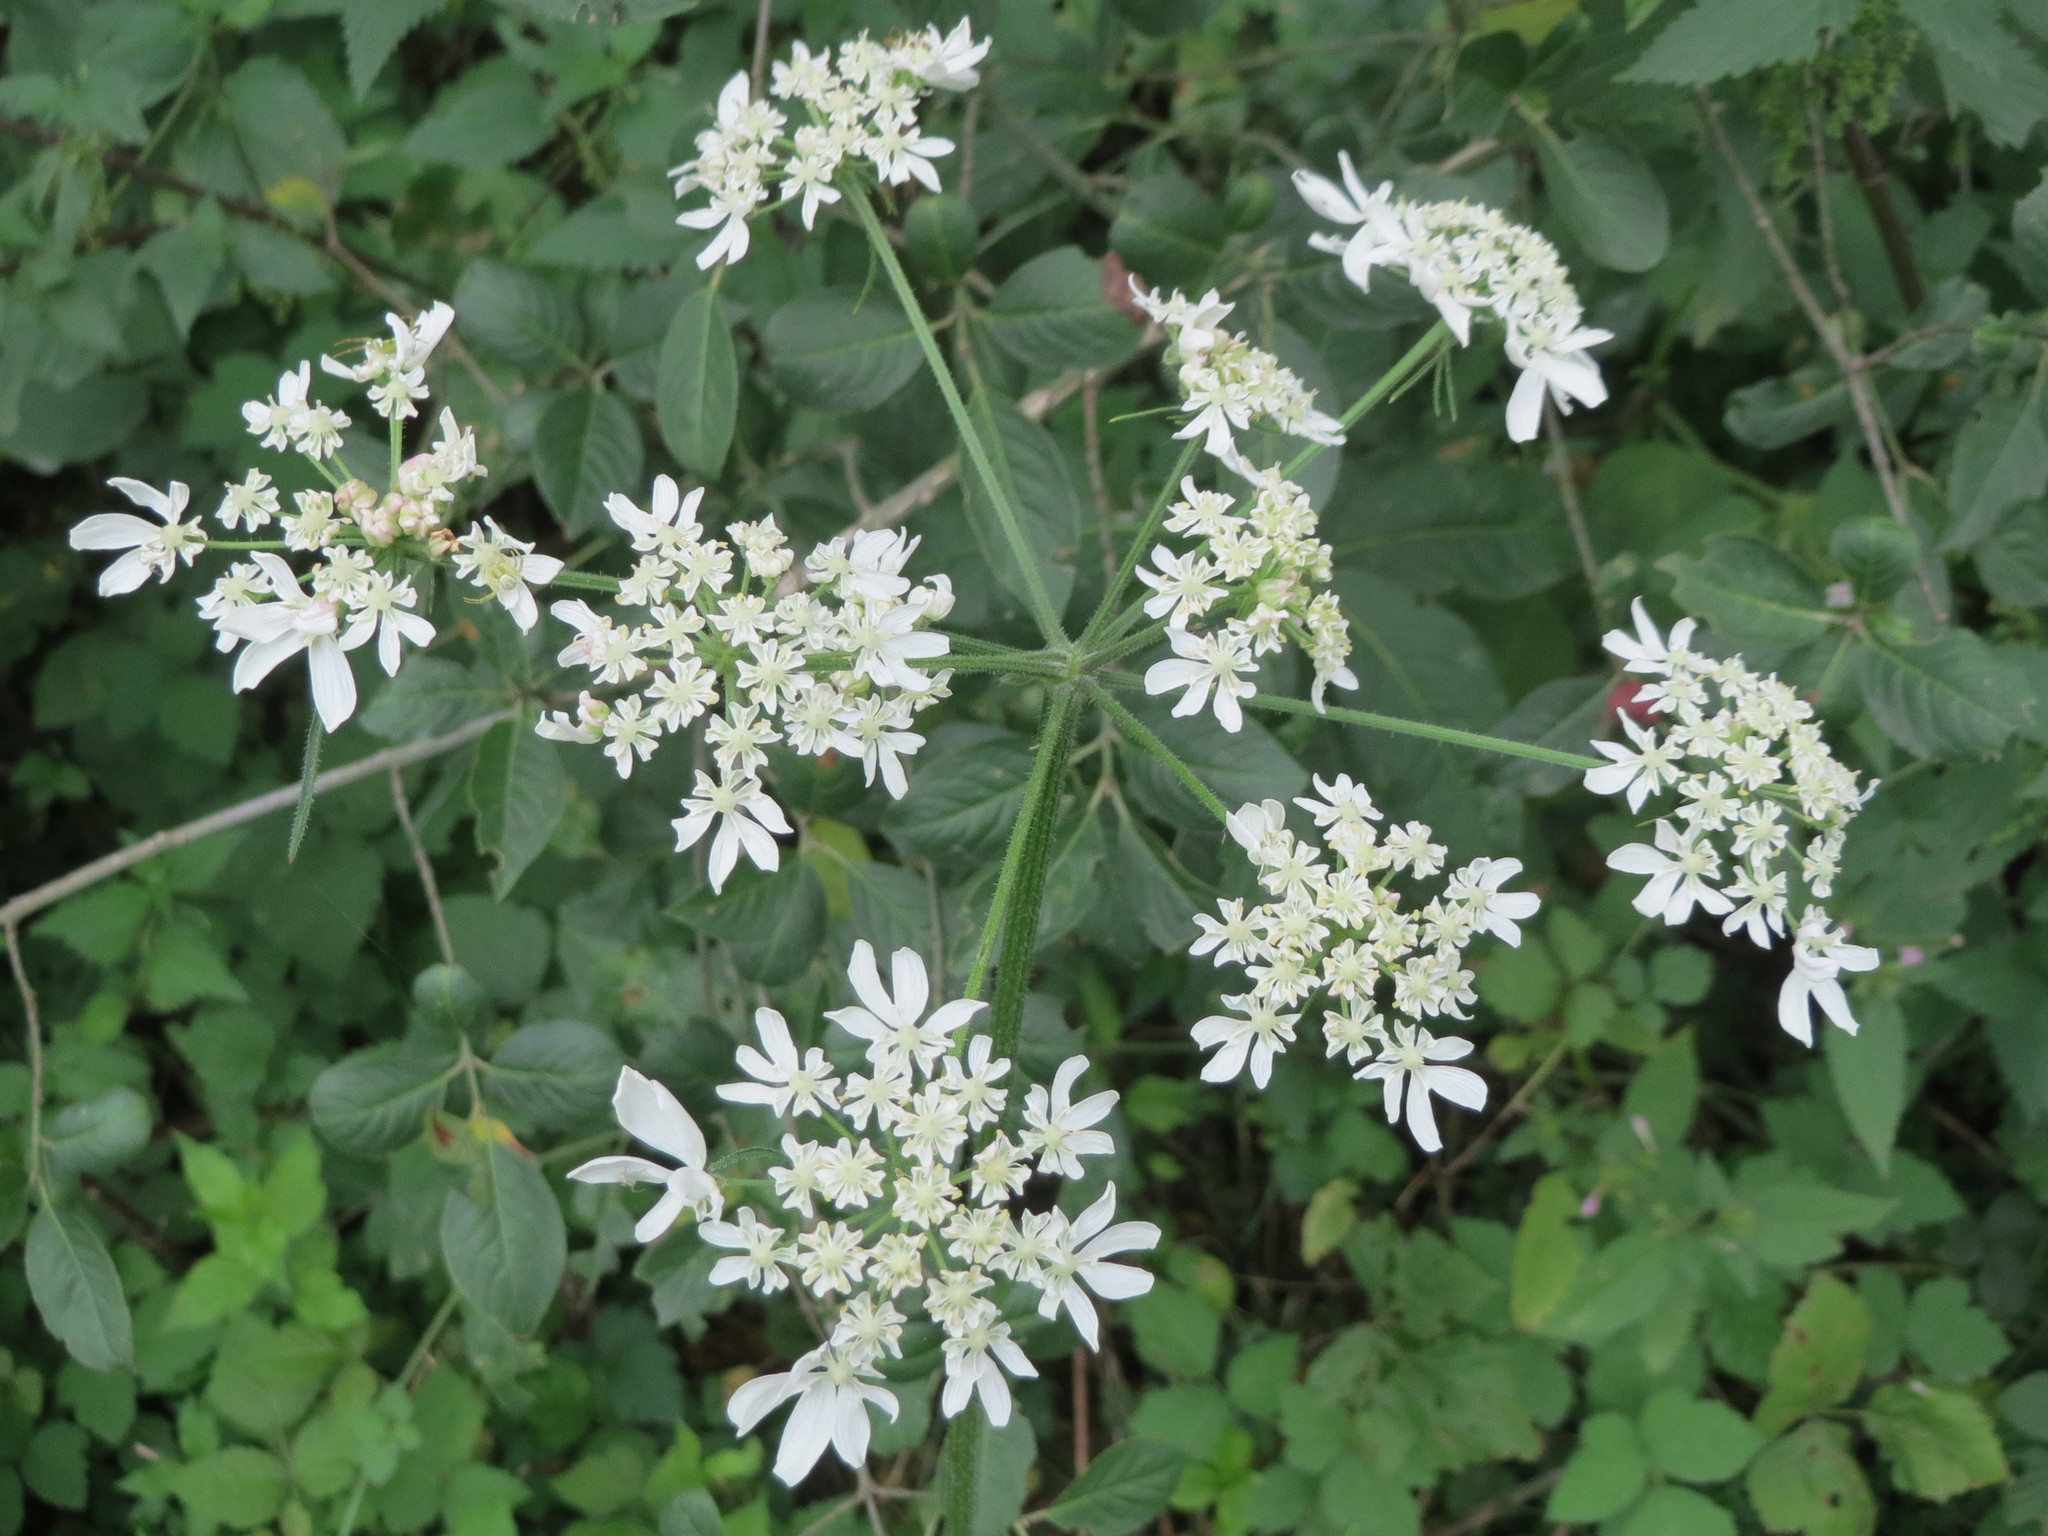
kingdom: Plantae
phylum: Tracheophyta
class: Magnoliopsida
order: Apiales
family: Apiaceae
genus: Heracleum
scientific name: Heracleum sphondylium
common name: Hogweed
